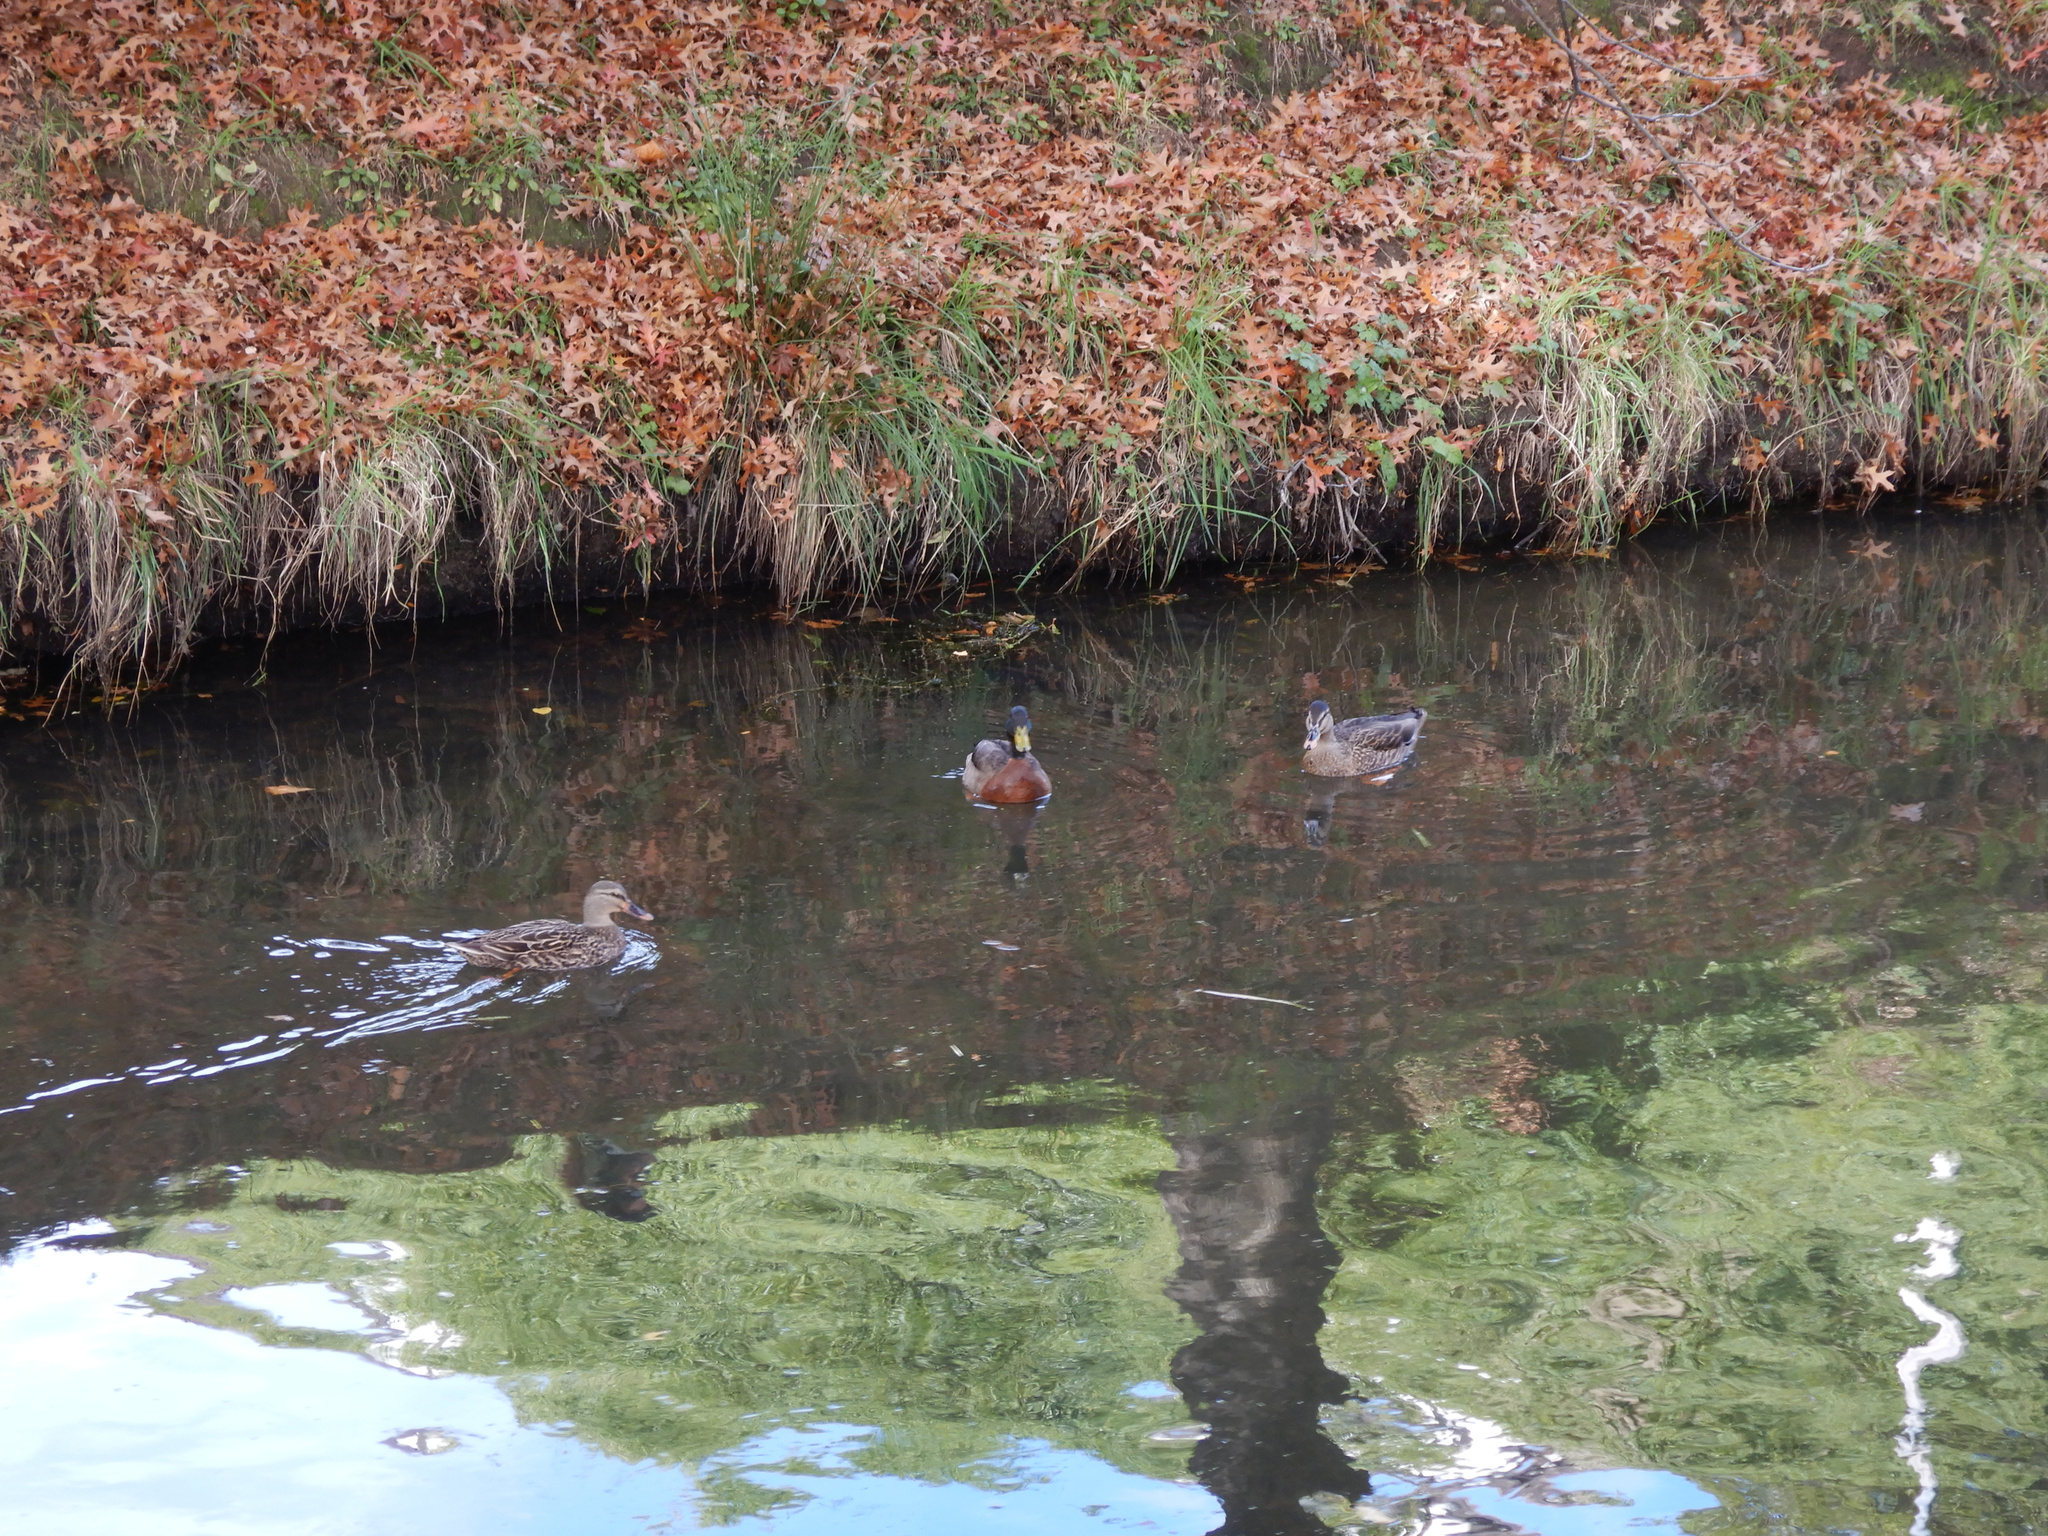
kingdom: Animalia
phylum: Chordata
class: Aves
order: Anseriformes
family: Anatidae
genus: Anas
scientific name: Anas
